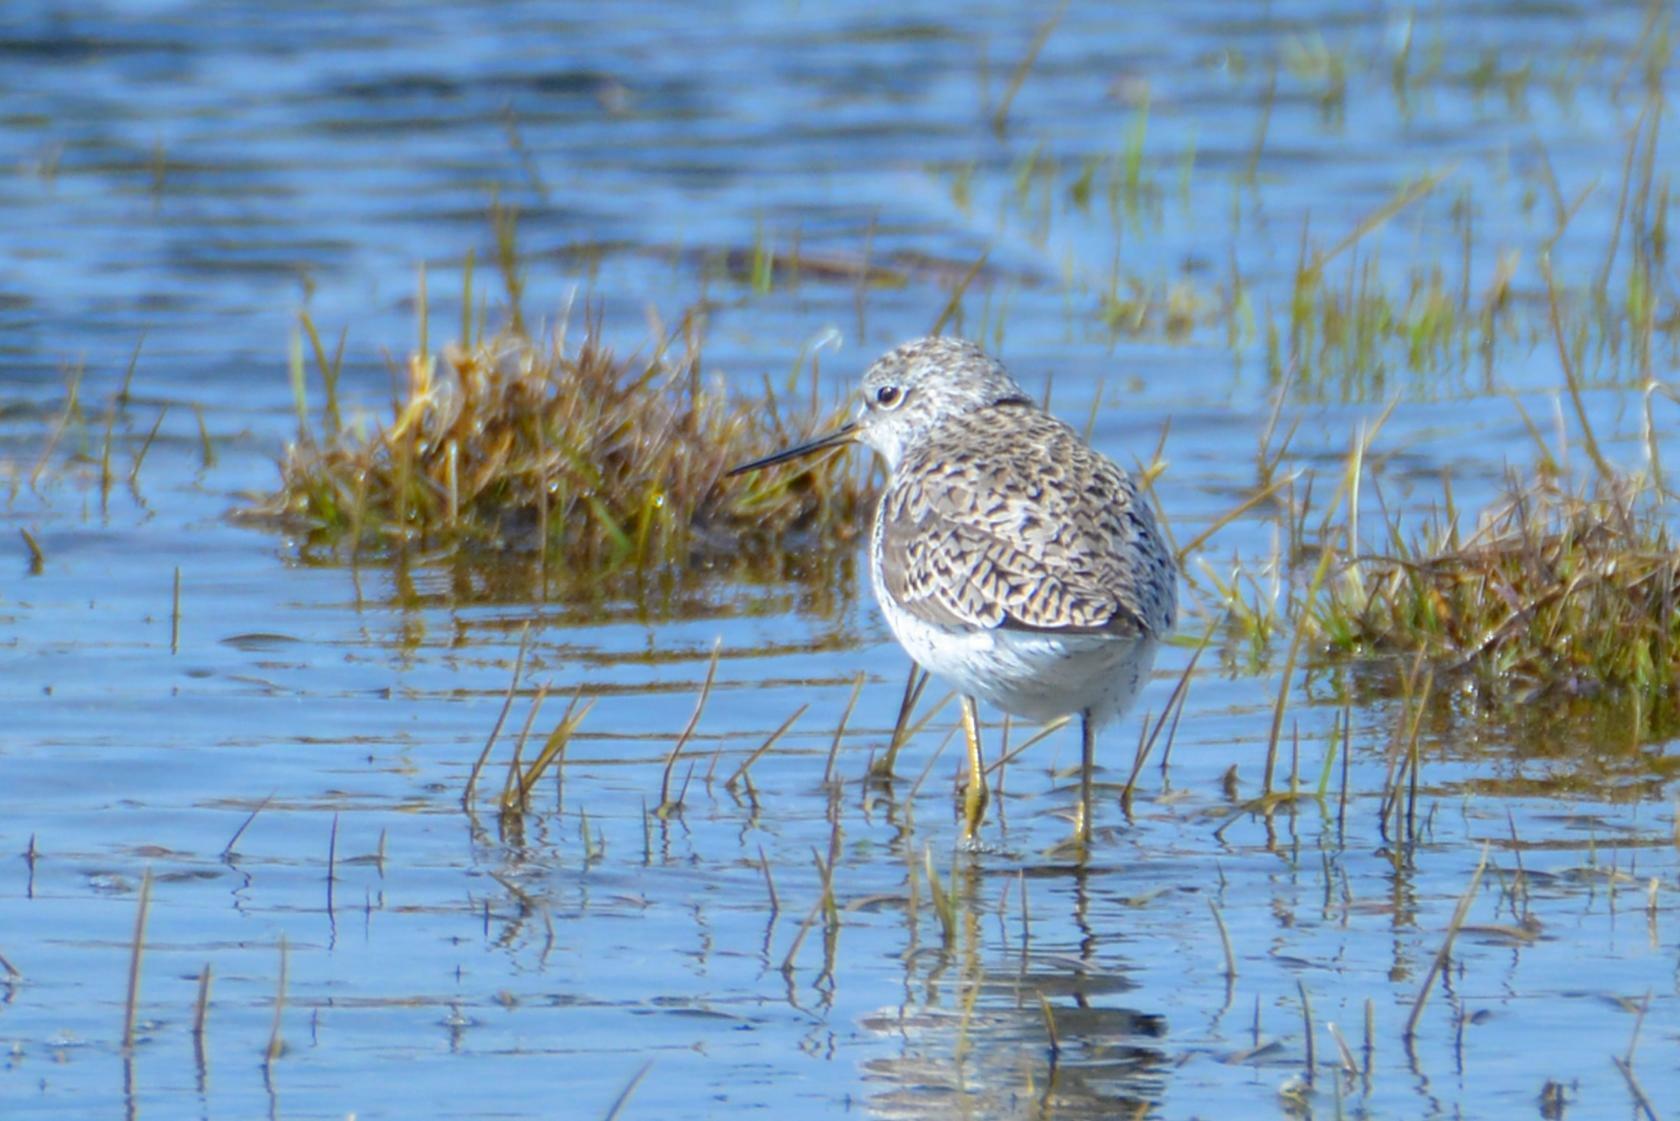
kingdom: Animalia
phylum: Chordata
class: Aves
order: Charadriiformes
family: Scolopacidae
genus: Tringa
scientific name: Tringa stagnatilis
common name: Marsh sandpiper
